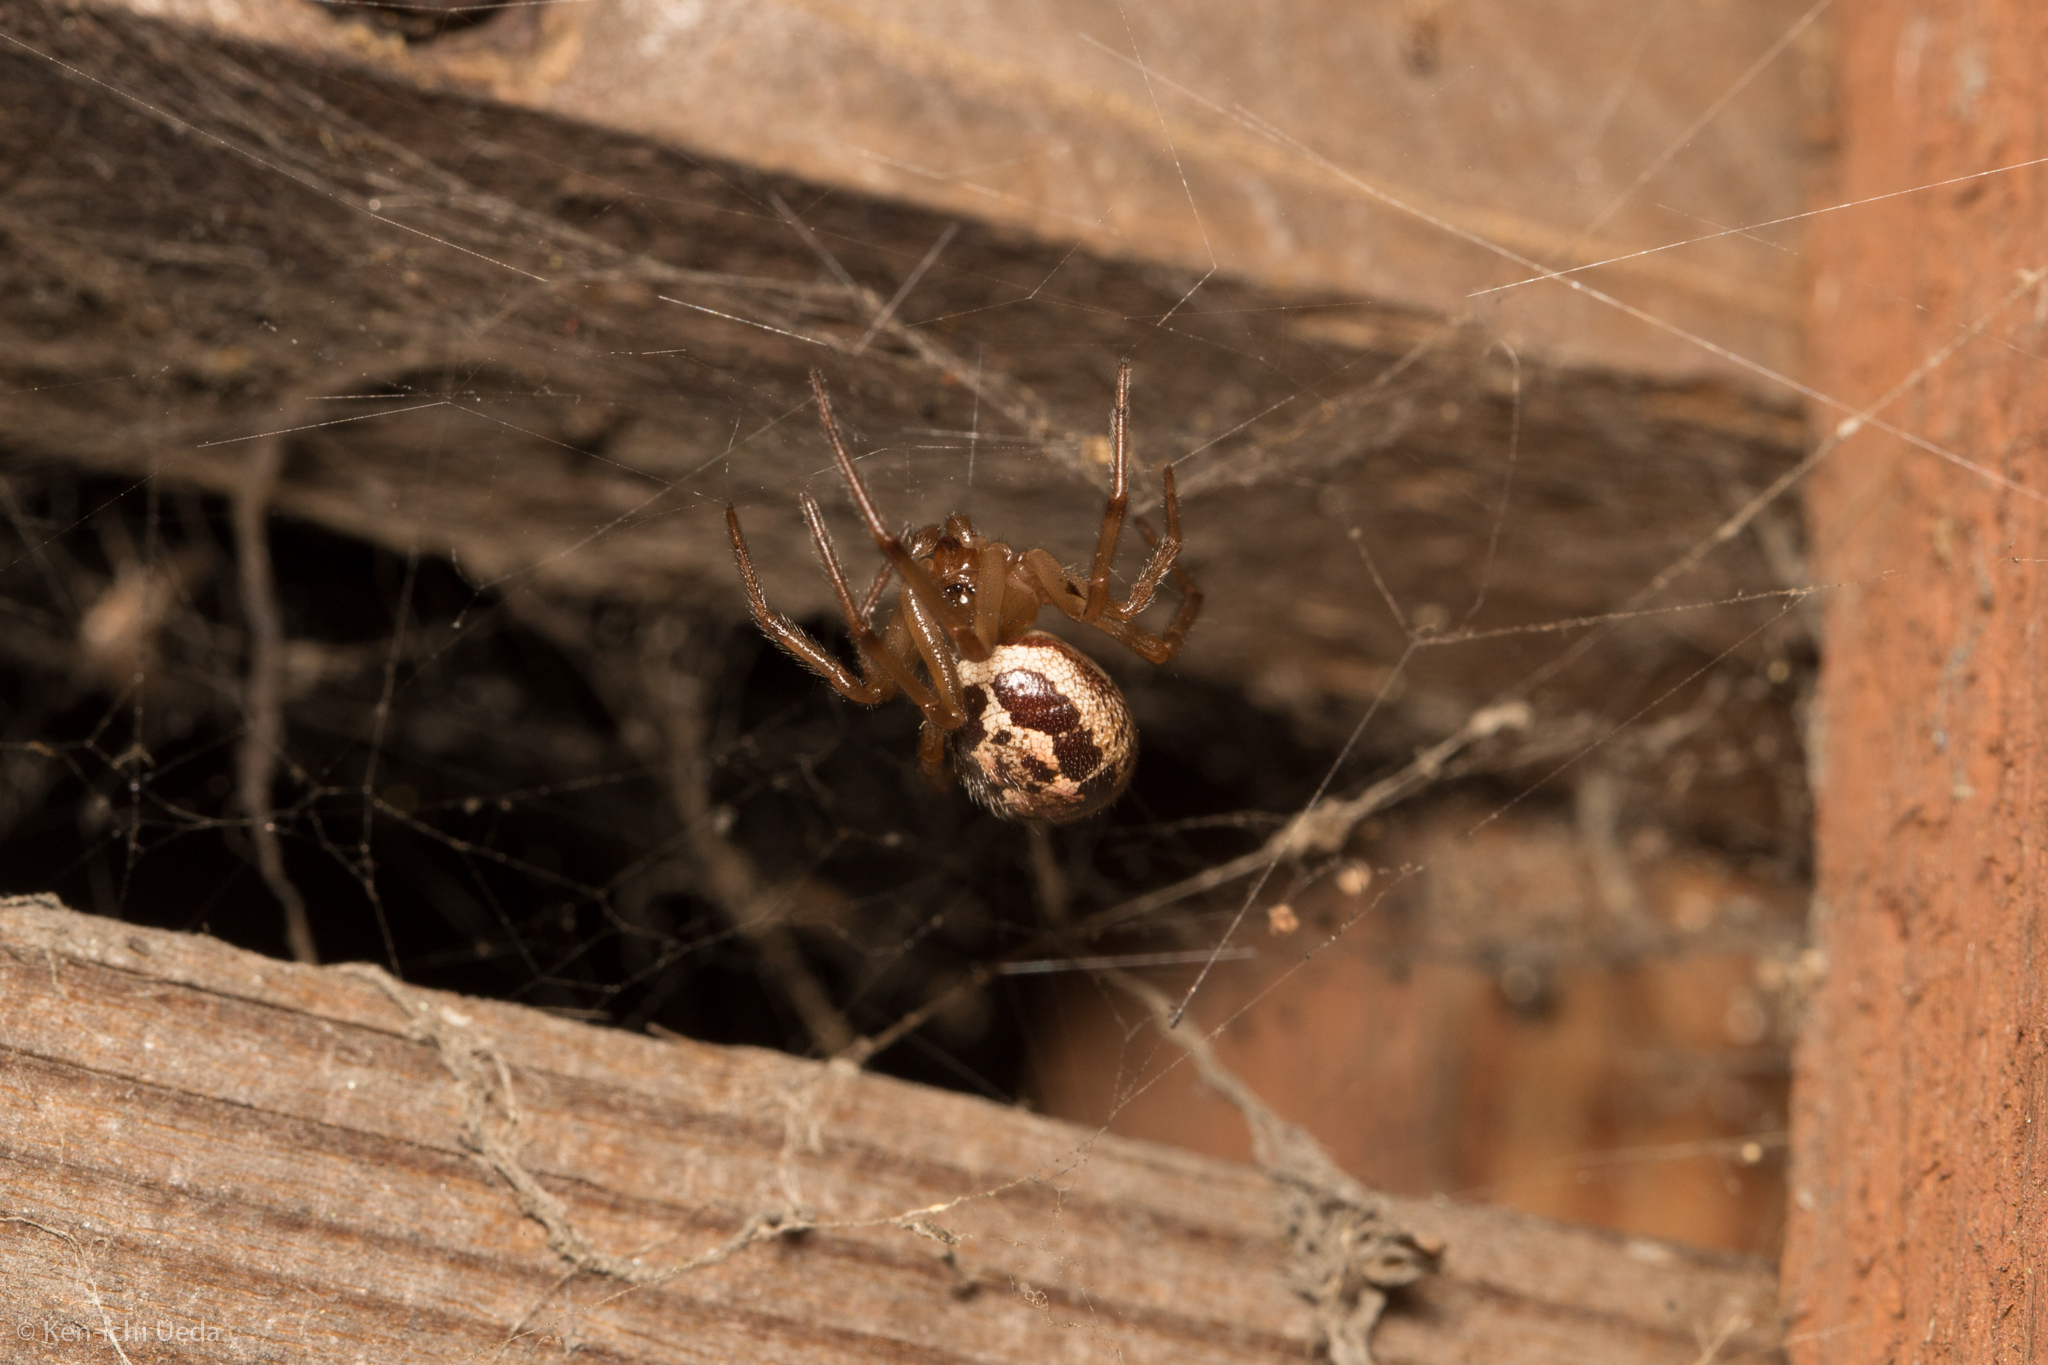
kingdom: Animalia
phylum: Arthropoda
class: Arachnida
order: Araneae
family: Theridiidae
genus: Steatoda
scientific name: Steatoda nobilis
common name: Cobweb weaver
